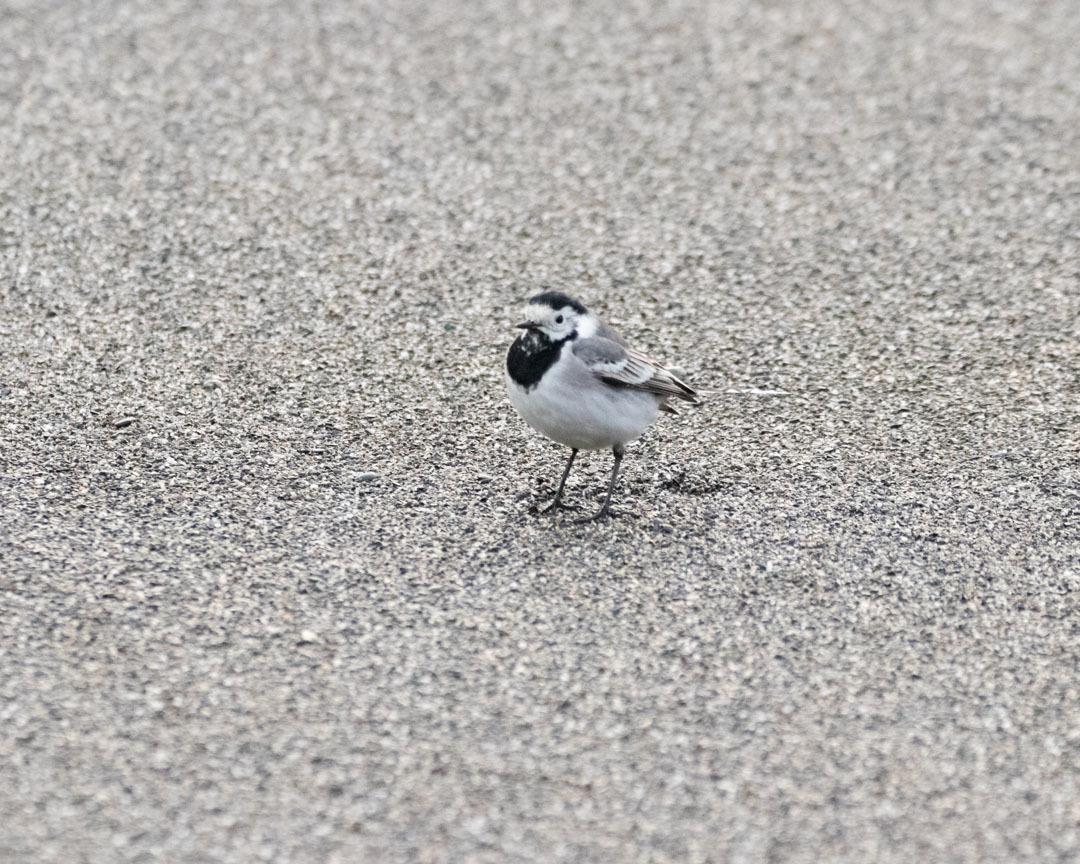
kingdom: Animalia
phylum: Chordata
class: Aves
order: Passeriformes
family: Motacillidae
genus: Motacilla
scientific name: Motacilla alba
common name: White wagtail
